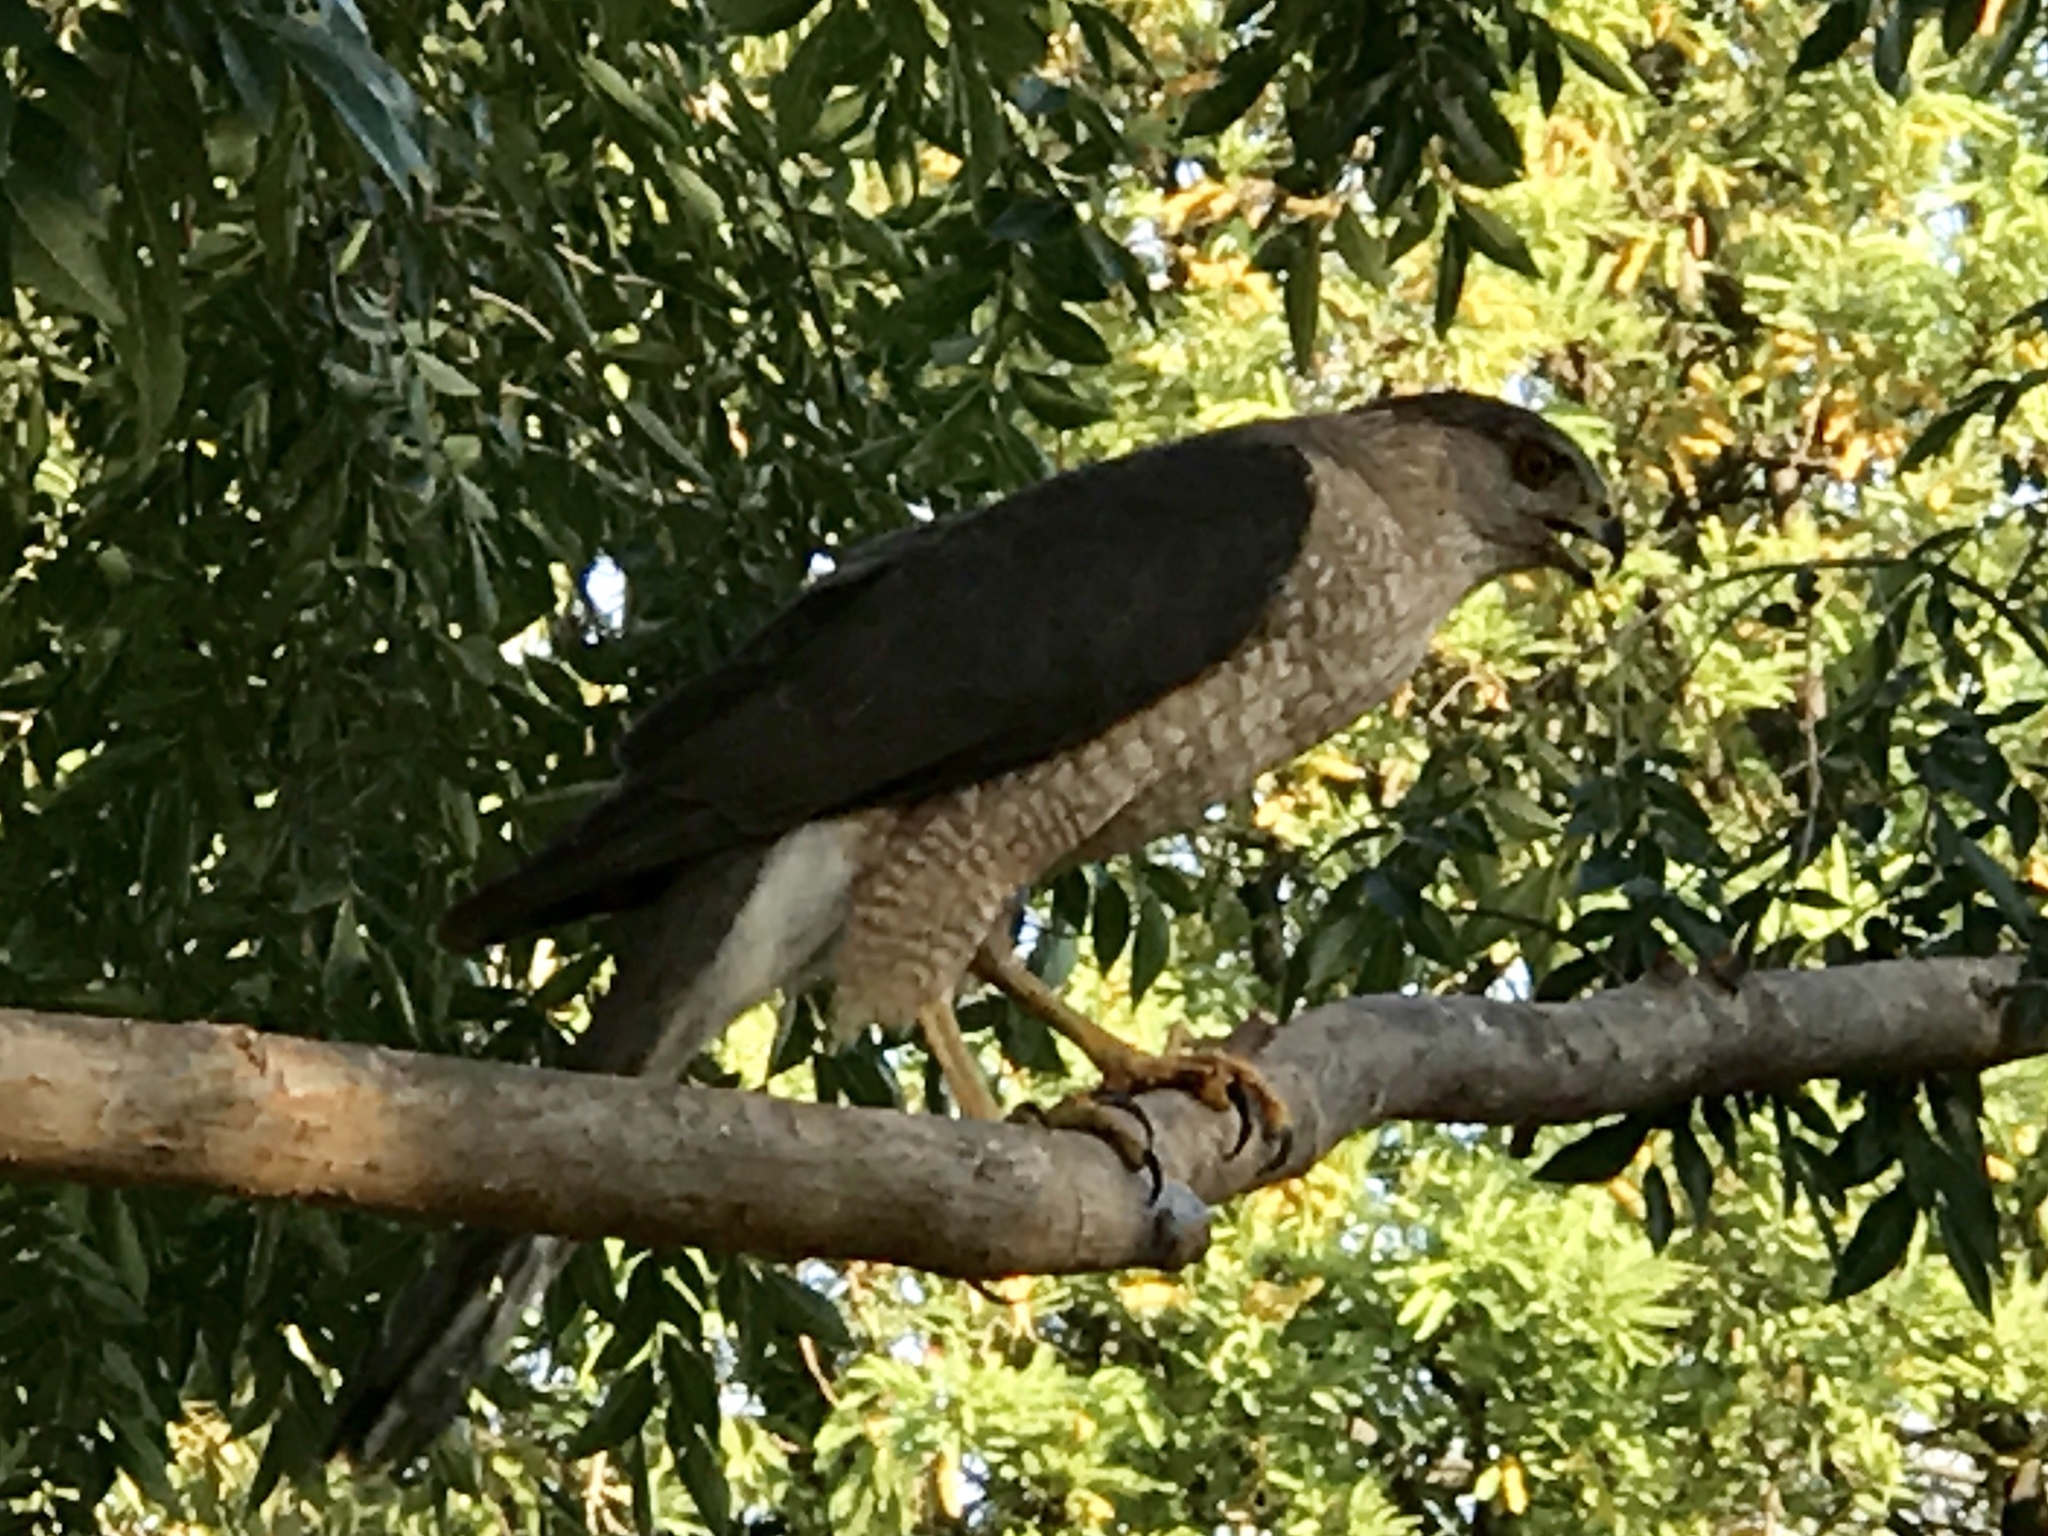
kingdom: Animalia
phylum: Chordata
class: Aves
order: Accipitriformes
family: Accipitridae
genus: Accipiter
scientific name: Accipiter cooperii
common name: Cooper's hawk
